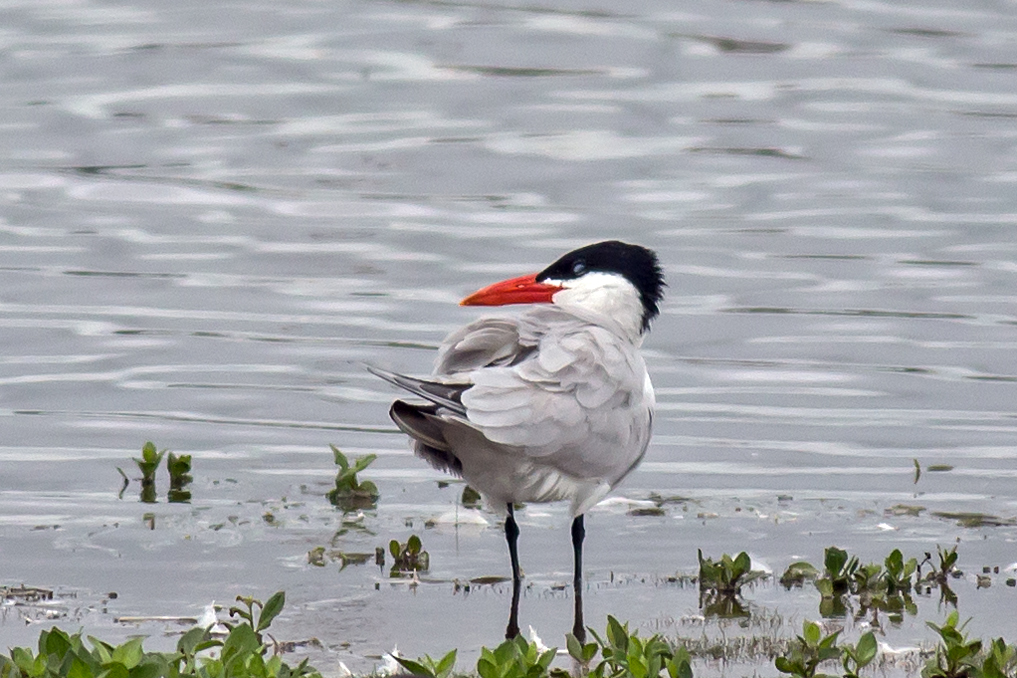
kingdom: Animalia
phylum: Chordata
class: Aves
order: Charadriiformes
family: Laridae
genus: Hydroprogne
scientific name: Hydroprogne caspia
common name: Caspian tern
